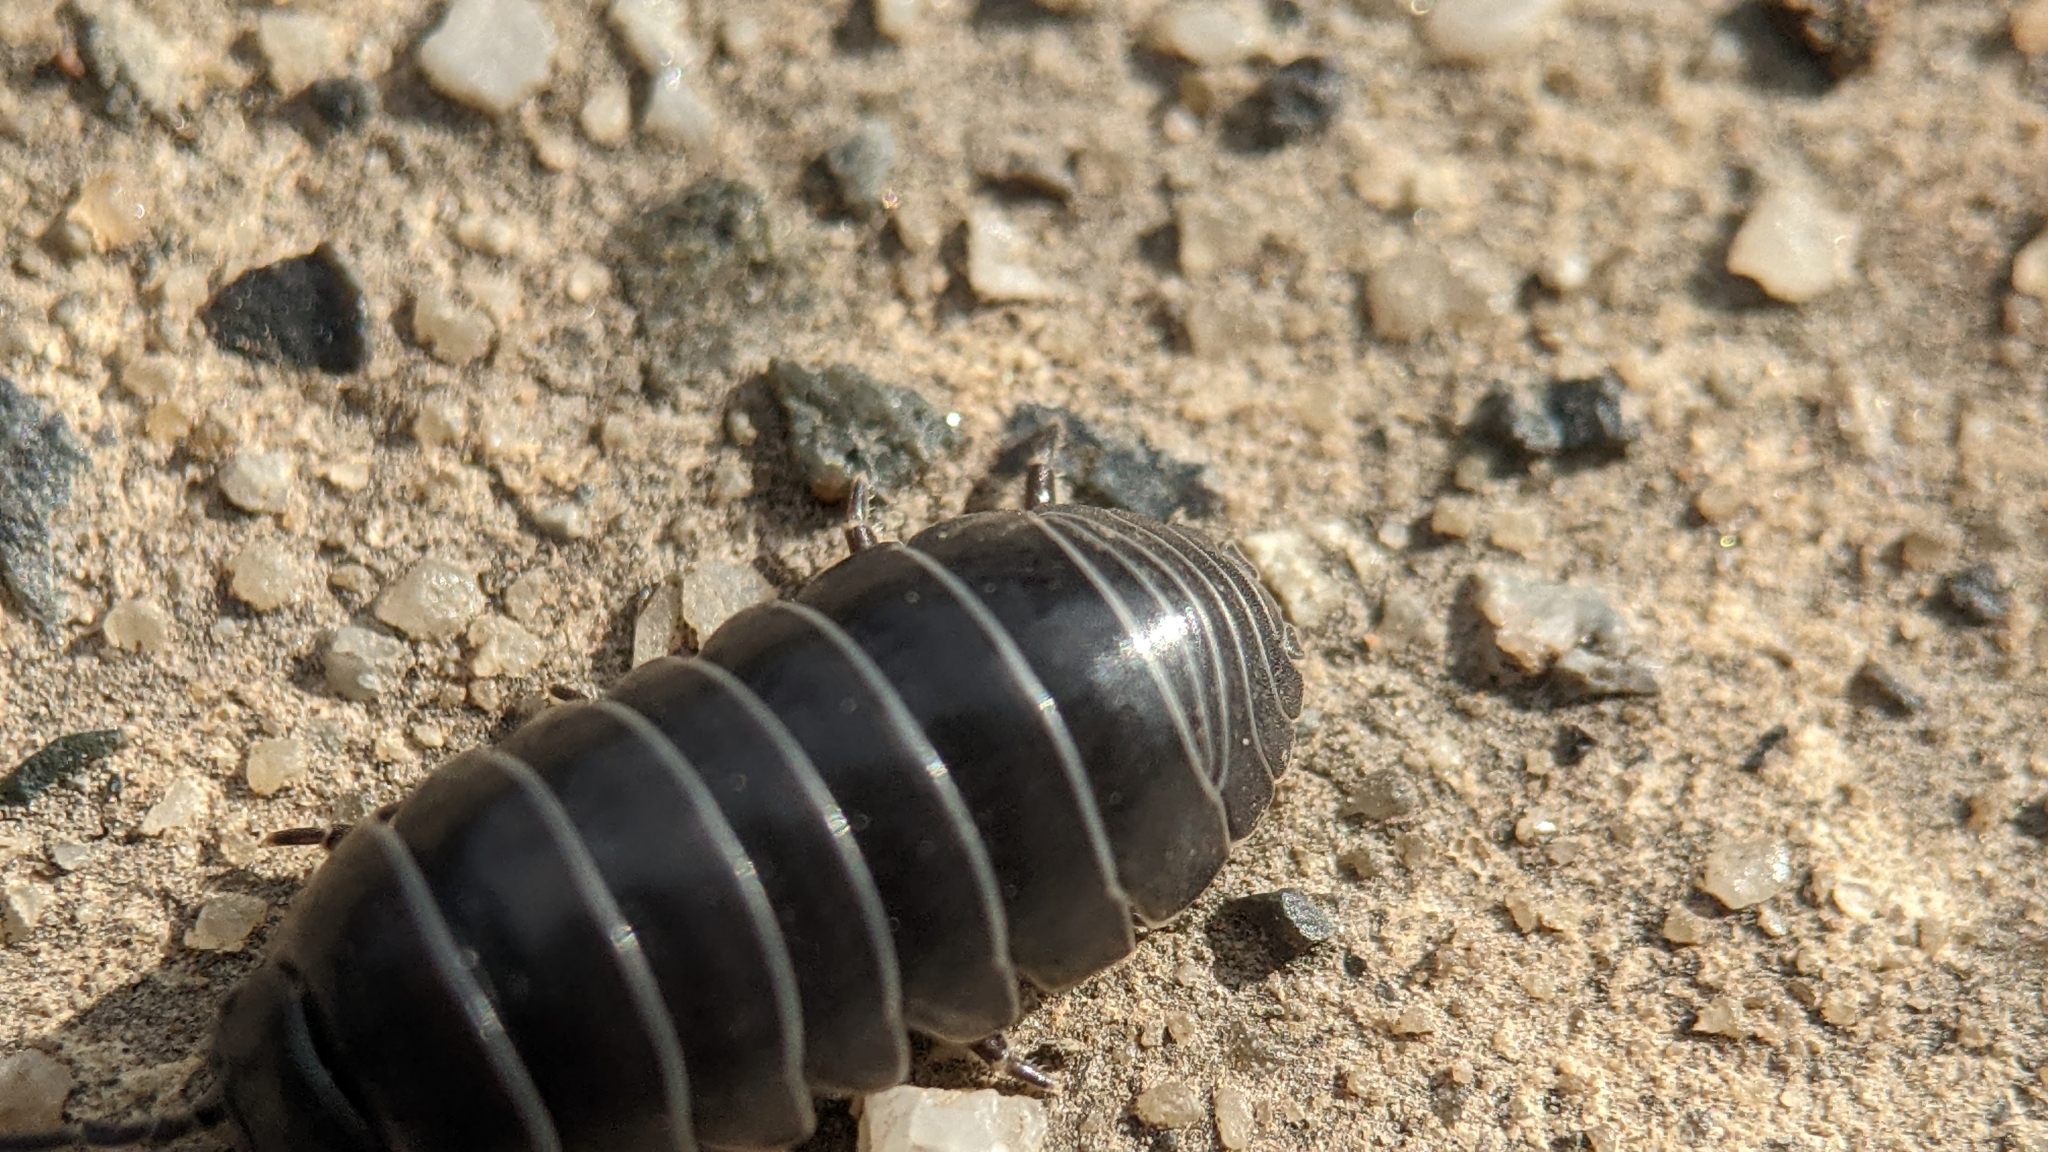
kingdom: Animalia
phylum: Arthropoda
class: Malacostraca
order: Isopoda
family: Armadillidiidae
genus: Armadillidium
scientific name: Armadillidium vulgare
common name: Common pill woodlouse
